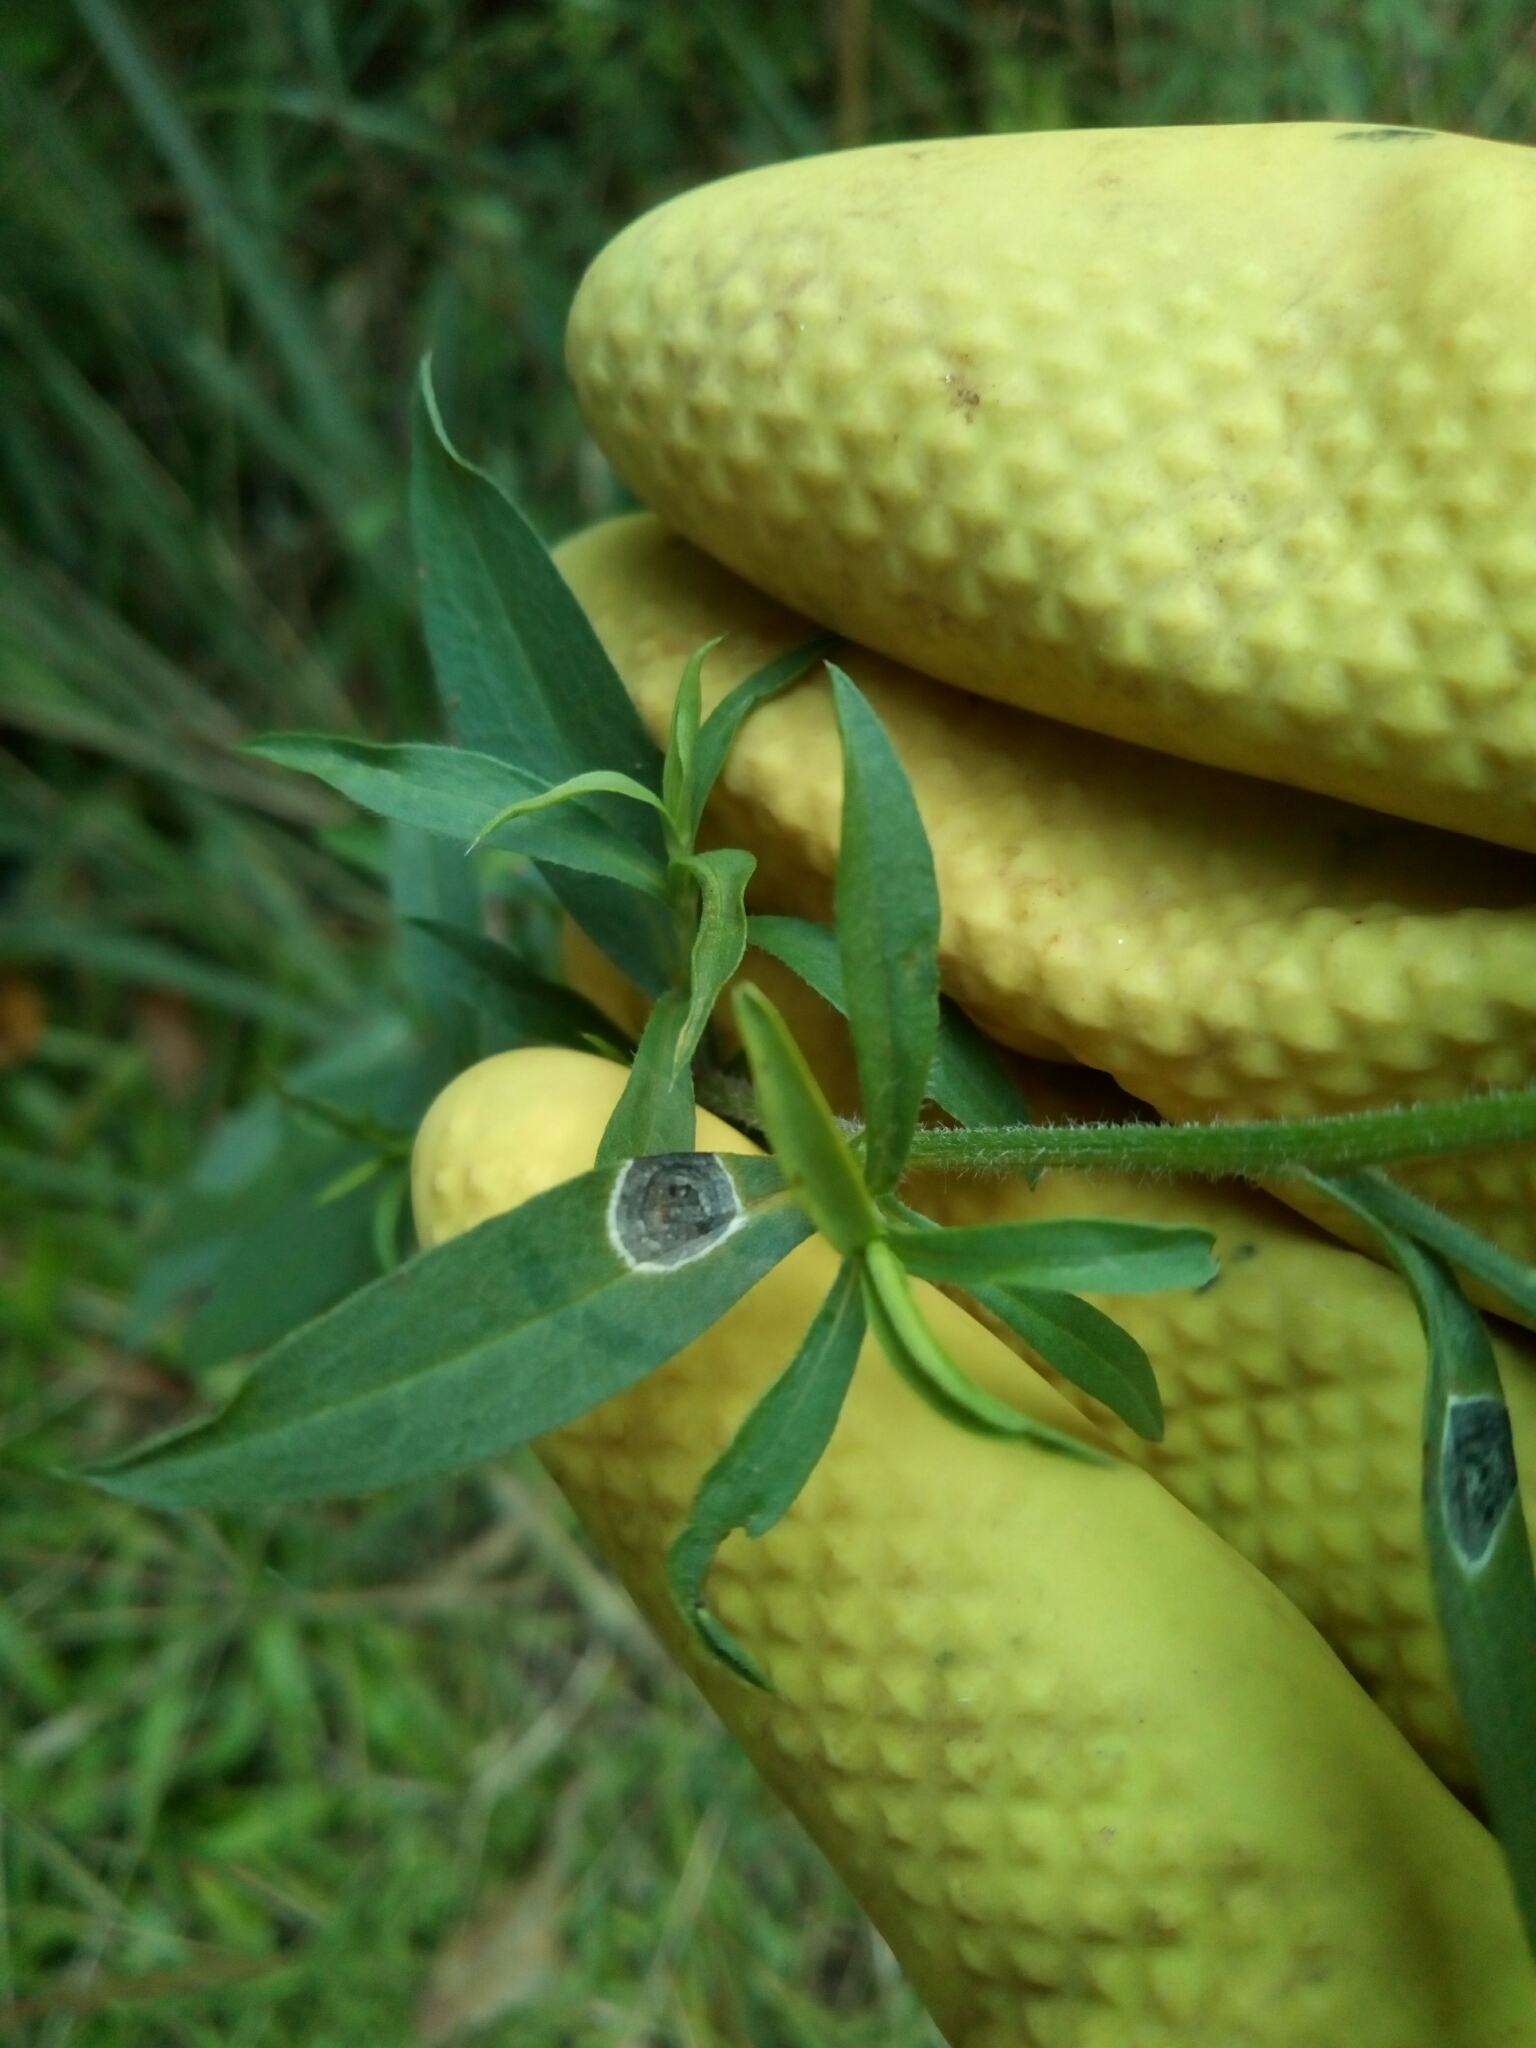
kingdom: Animalia
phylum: Arthropoda
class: Insecta
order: Diptera
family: Cecidomyiidae
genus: Asteromyia
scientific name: Asteromyia carbonifera
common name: Carbonifera goldenrod gall midge
